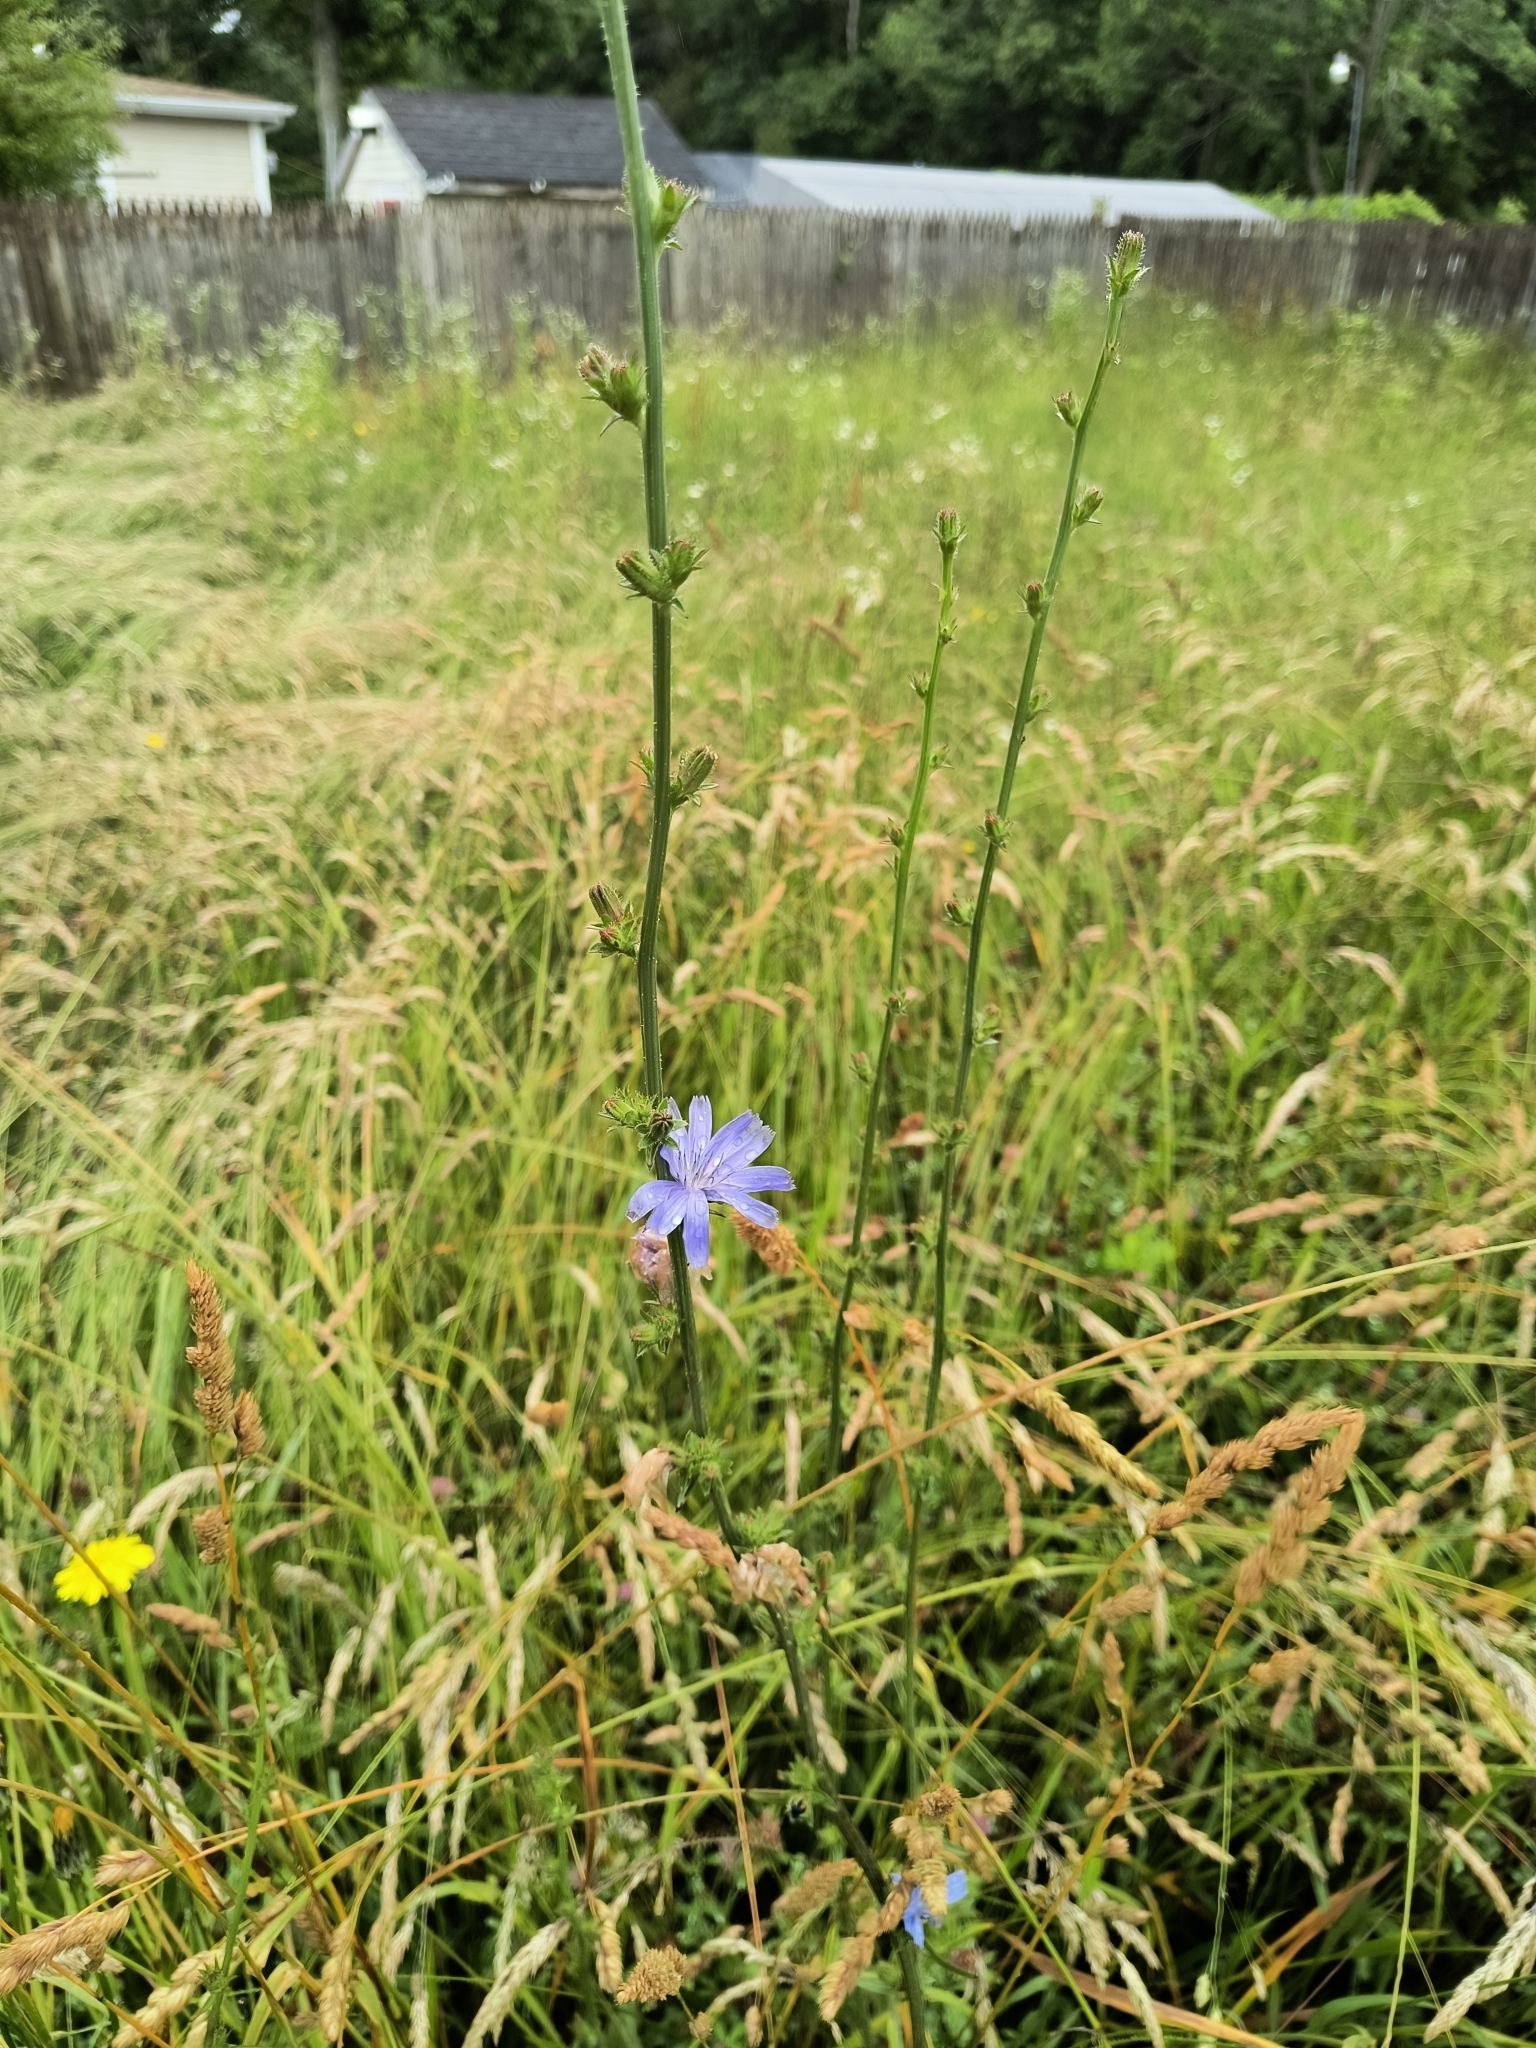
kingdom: Plantae
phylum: Tracheophyta
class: Magnoliopsida
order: Asterales
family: Asteraceae
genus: Cichorium
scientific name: Cichorium intybus
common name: Chicory
